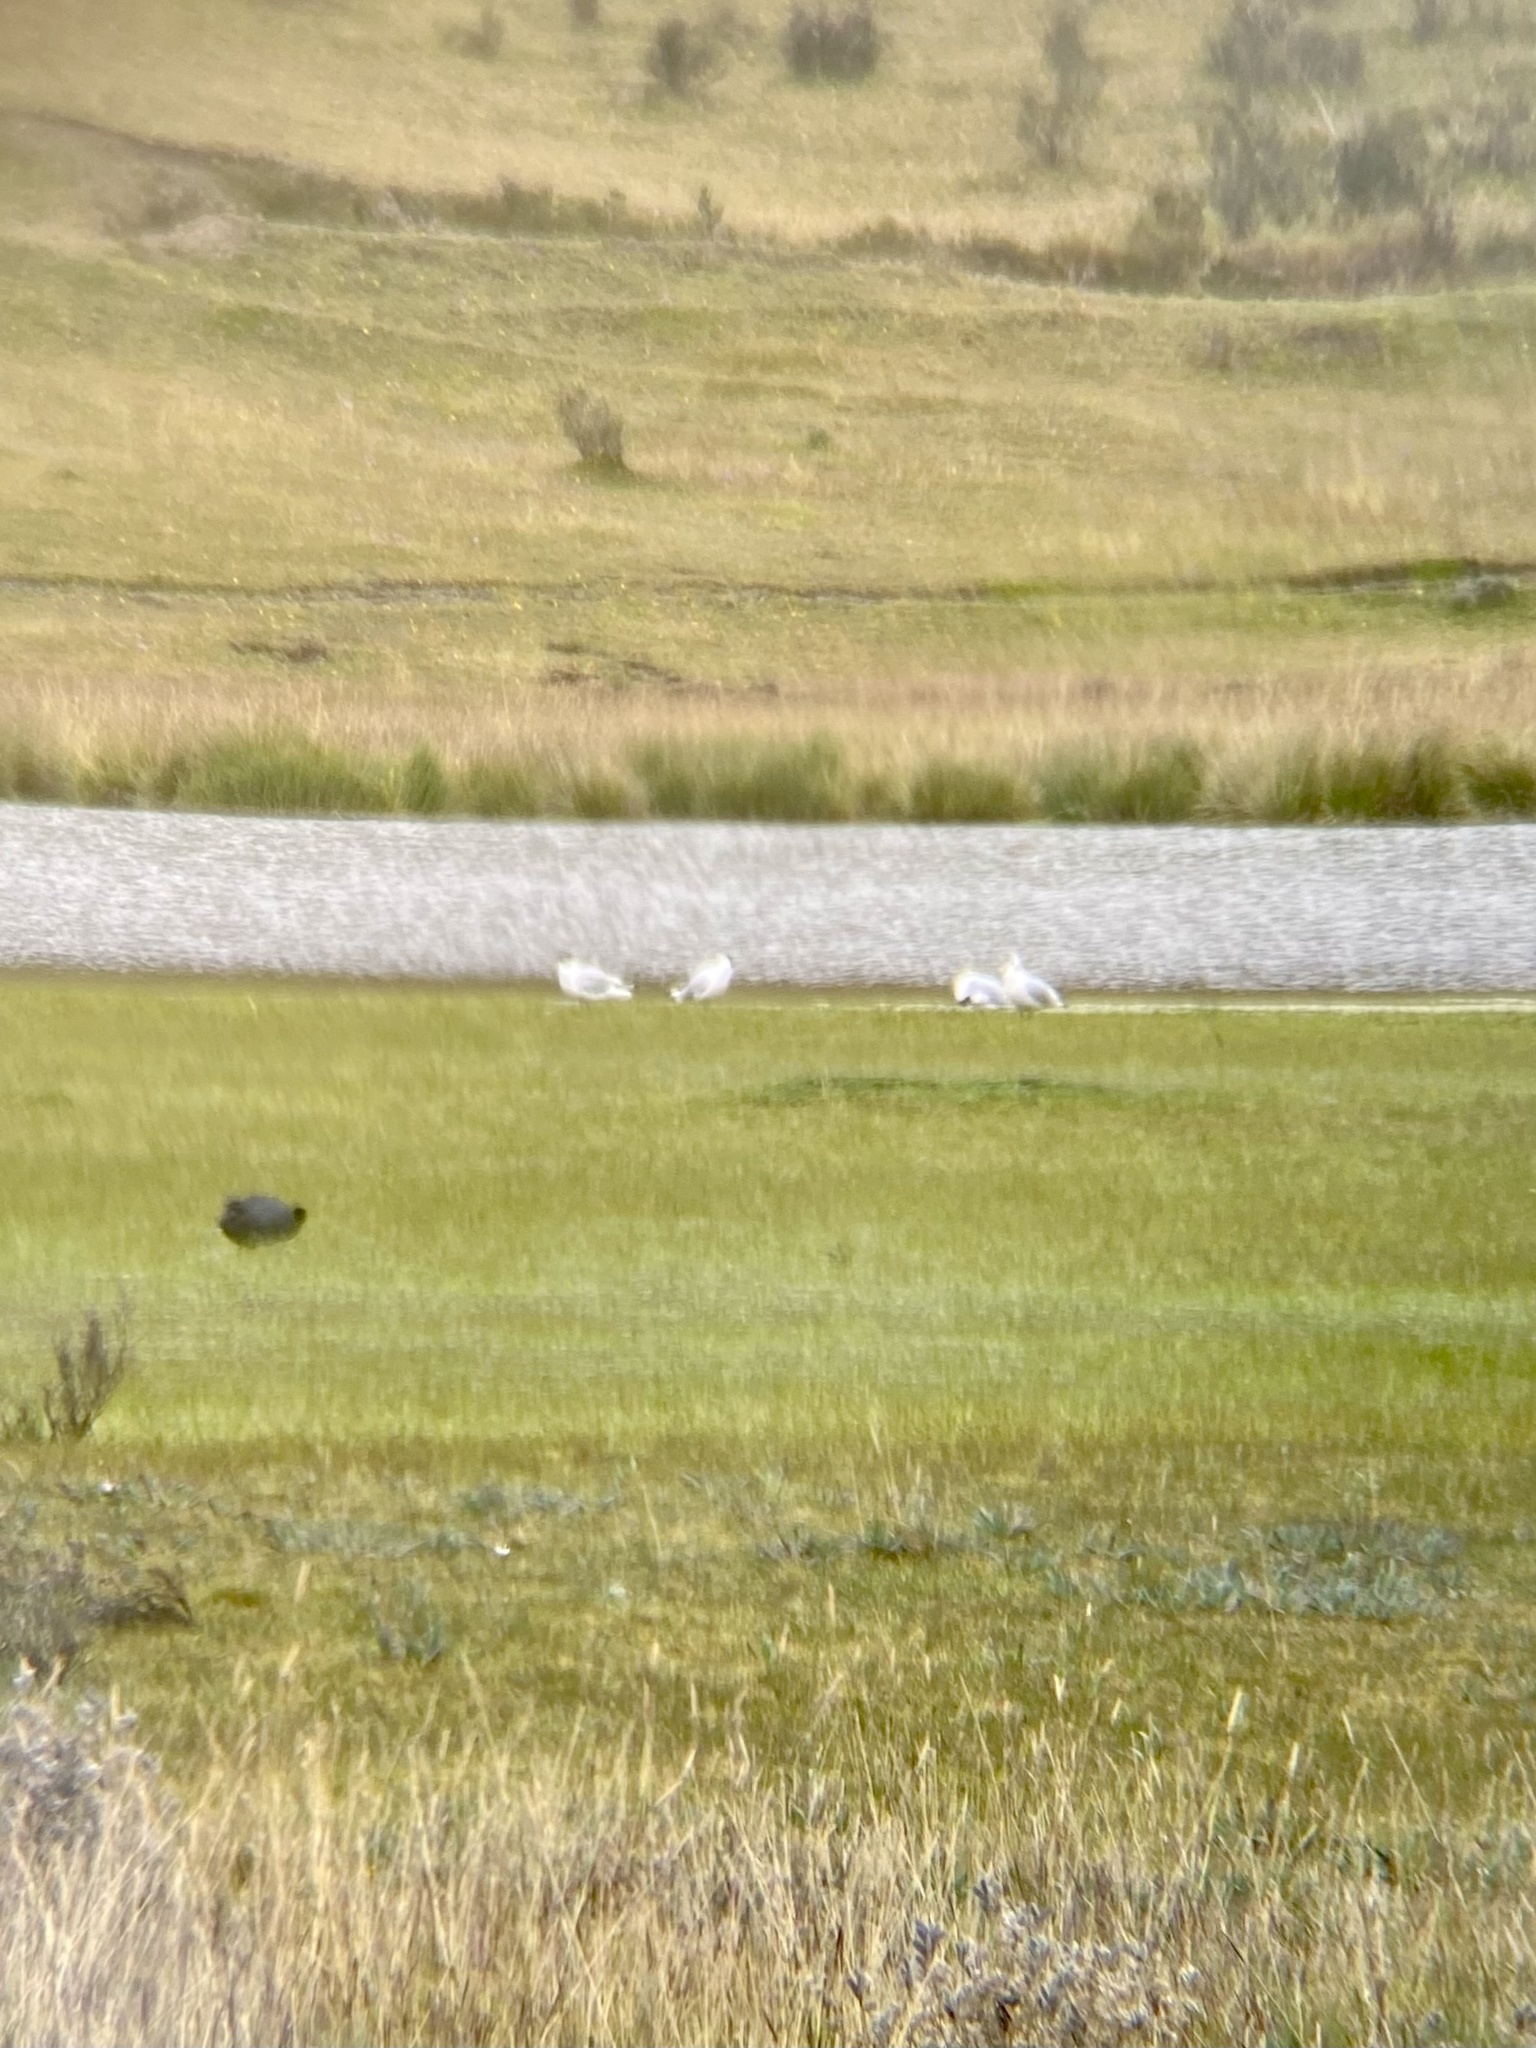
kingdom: Animalia
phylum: Chordata
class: Aves
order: Charadriiformes
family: Laridae
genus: Chroicocephalus
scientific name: Chroicocephalus serranus
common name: Andean gull
